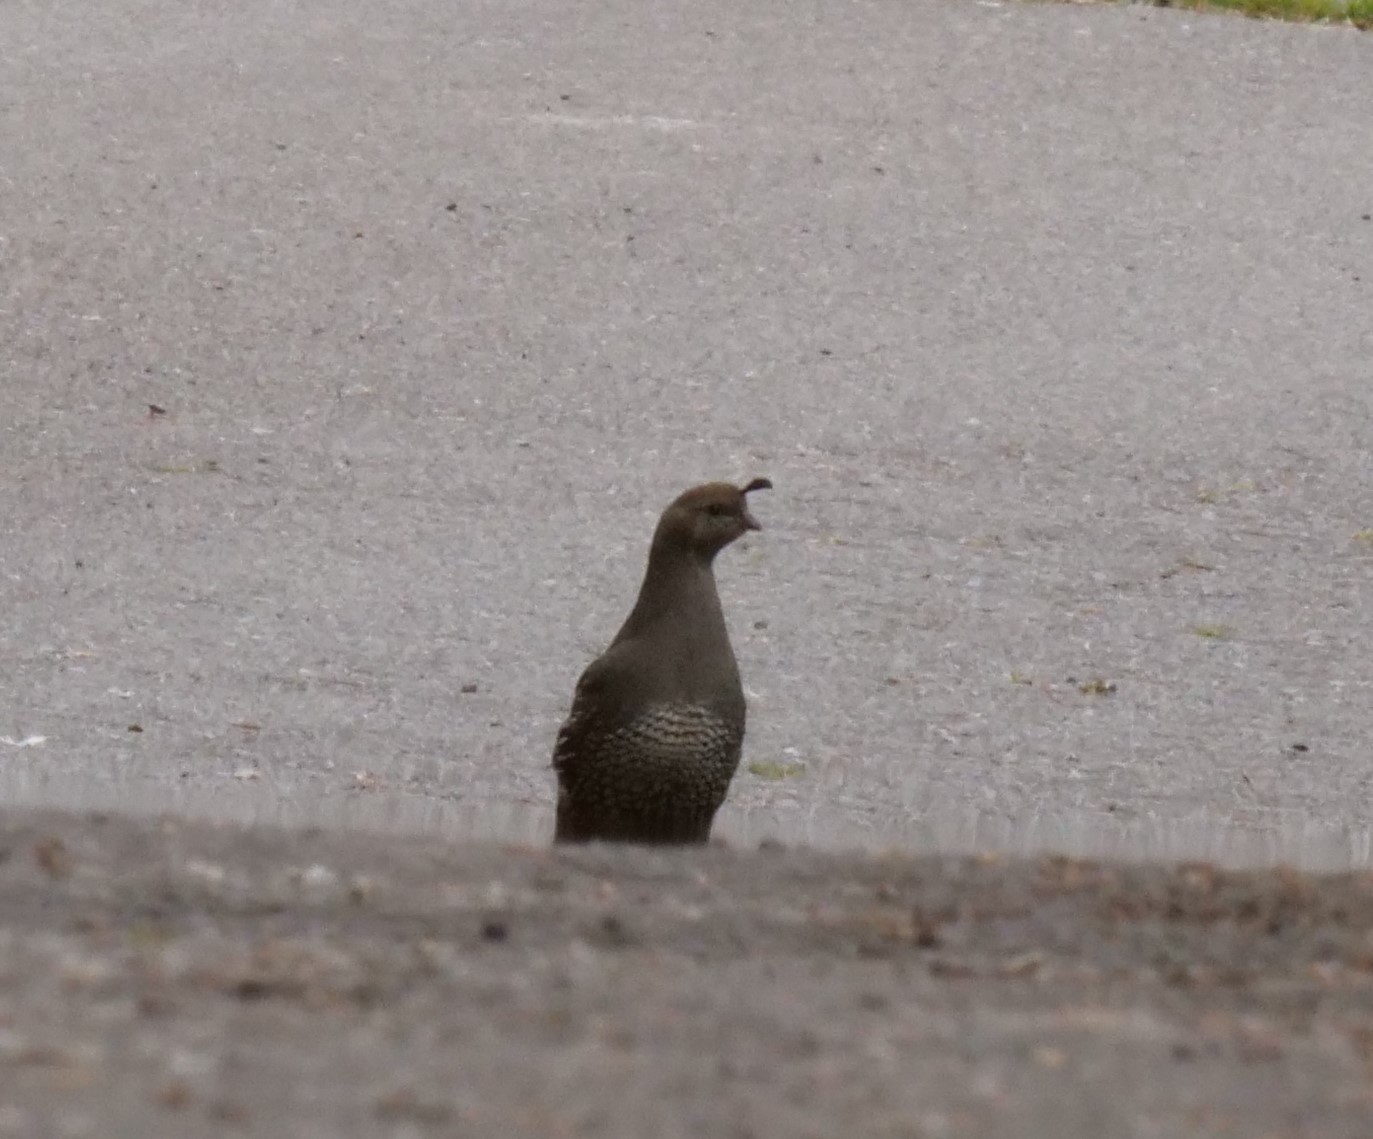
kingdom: Animalia
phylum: Chordata
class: Aves
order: Galliformes
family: Odontophoridae
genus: Callipepla
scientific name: Callipepla californica
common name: California quail
